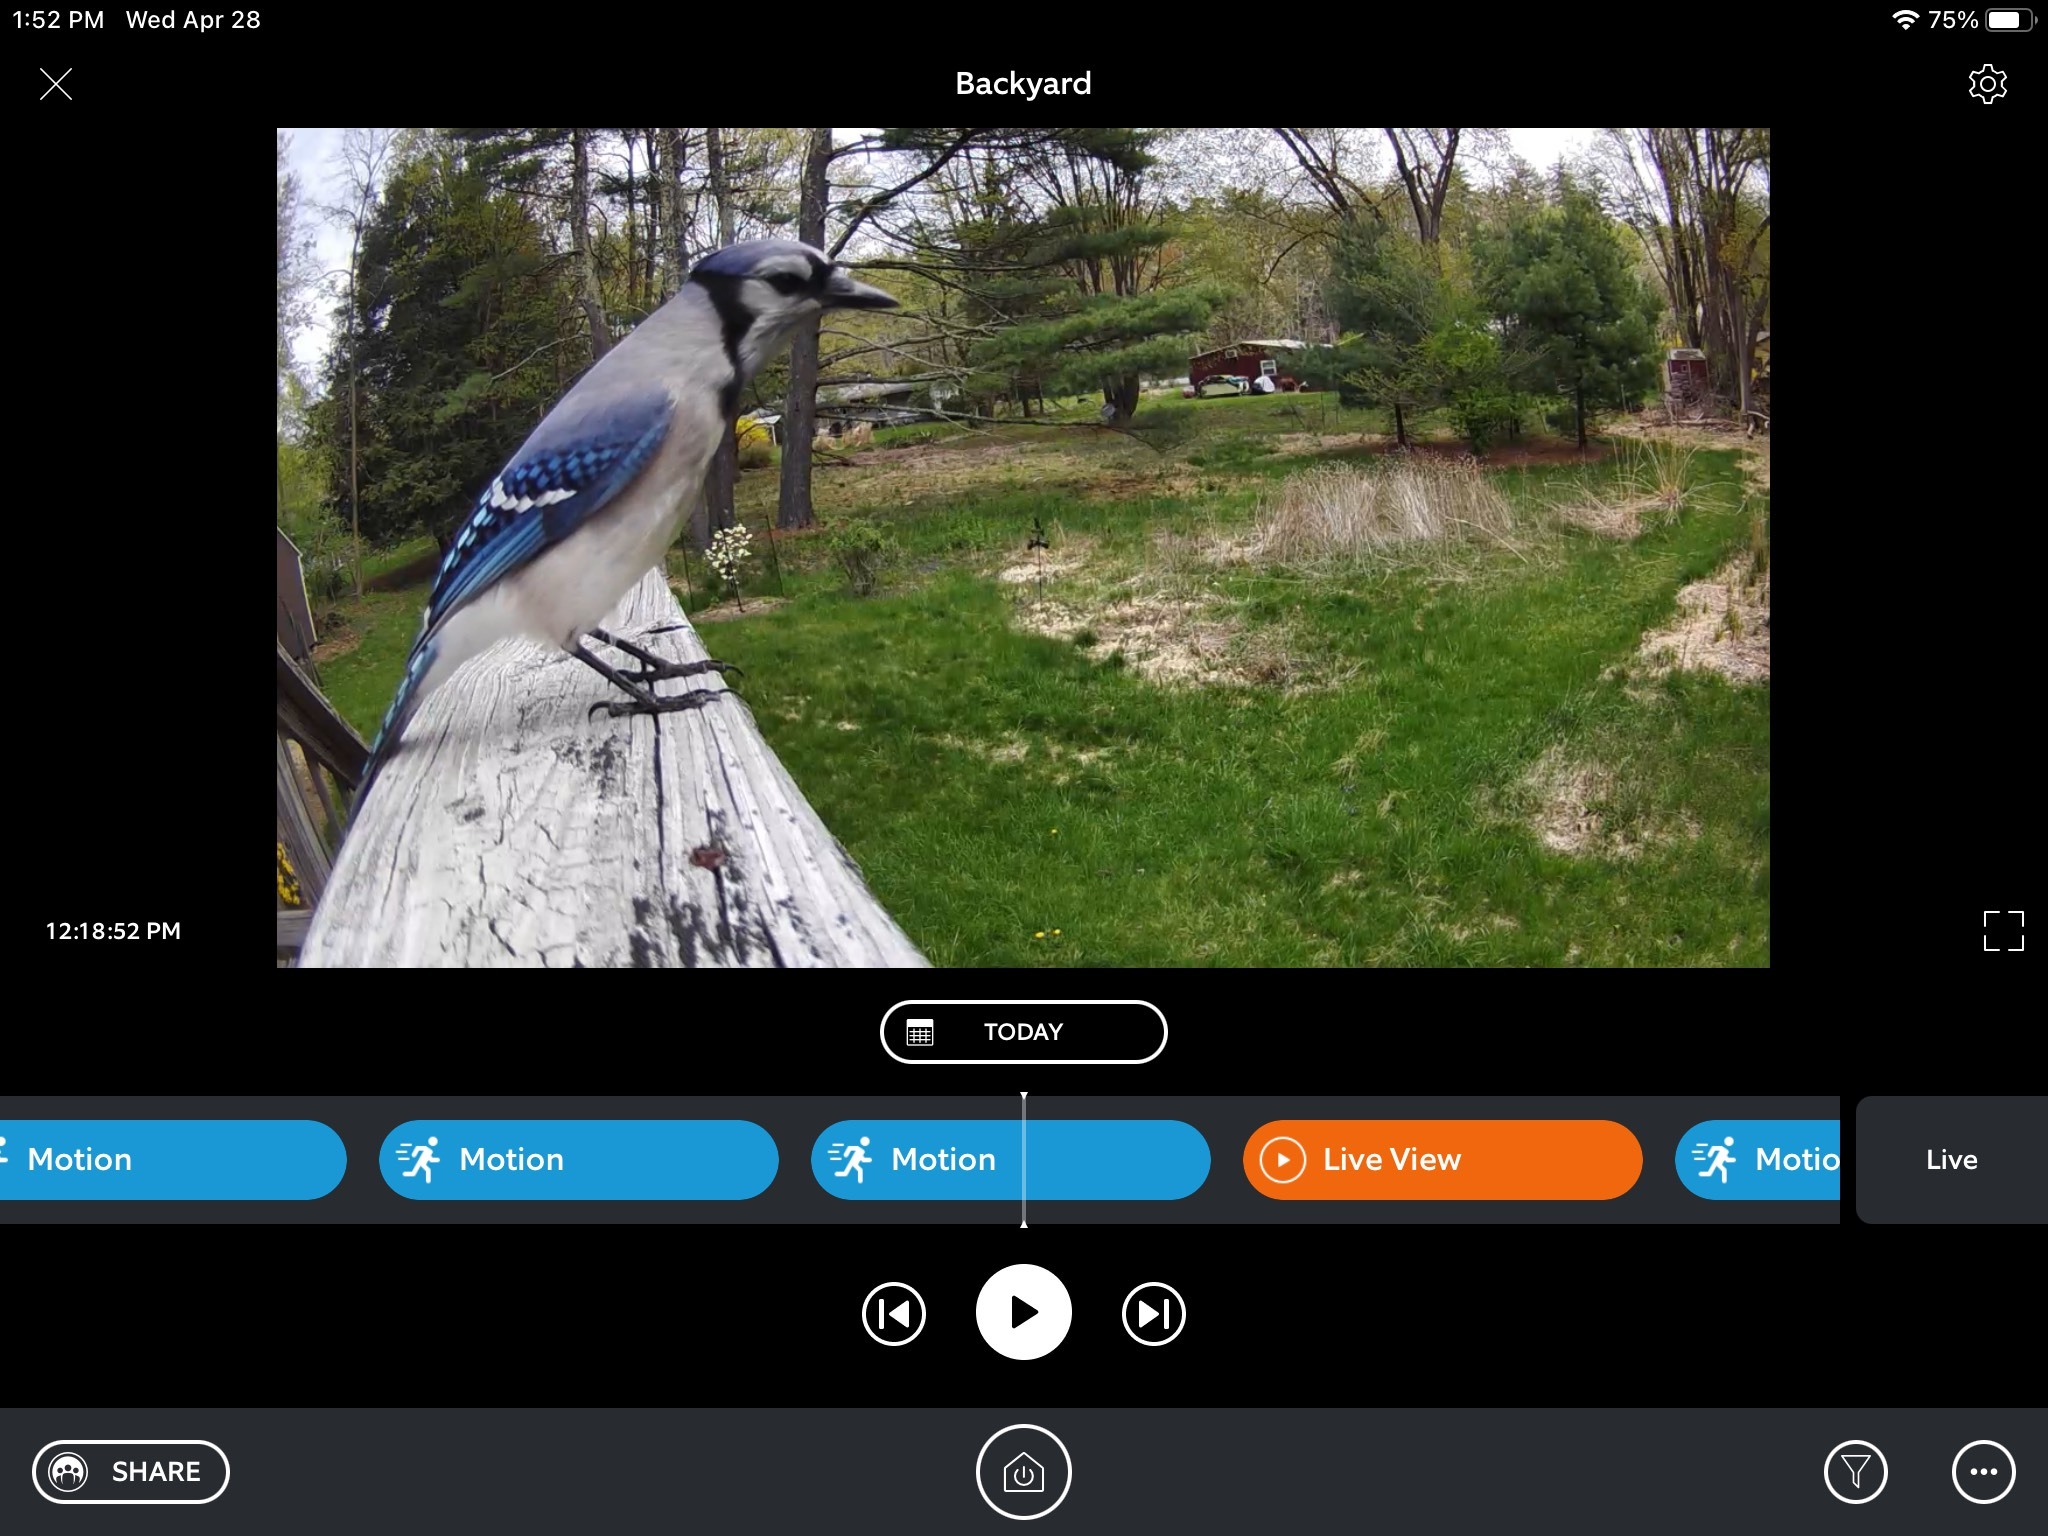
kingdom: Animalia
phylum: Chordata
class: Aves
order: Passeriformes
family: Corvidae
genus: Cyanocitta
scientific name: Cyanocitta cristata
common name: Blue jay
